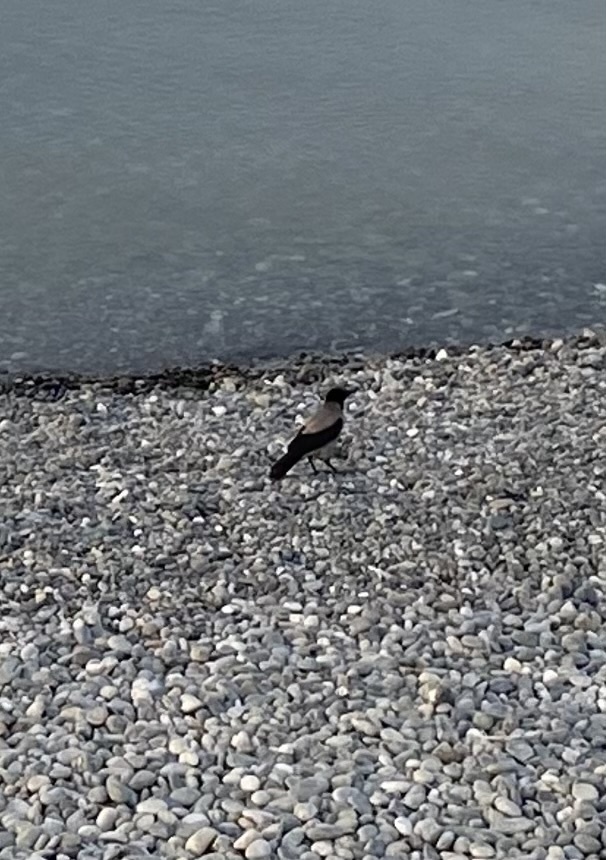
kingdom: Animalia
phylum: Chordata
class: Aves
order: Passeriformes
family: Corvidae
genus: Corvus
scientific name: Corvus cornix
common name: Hooded crow
